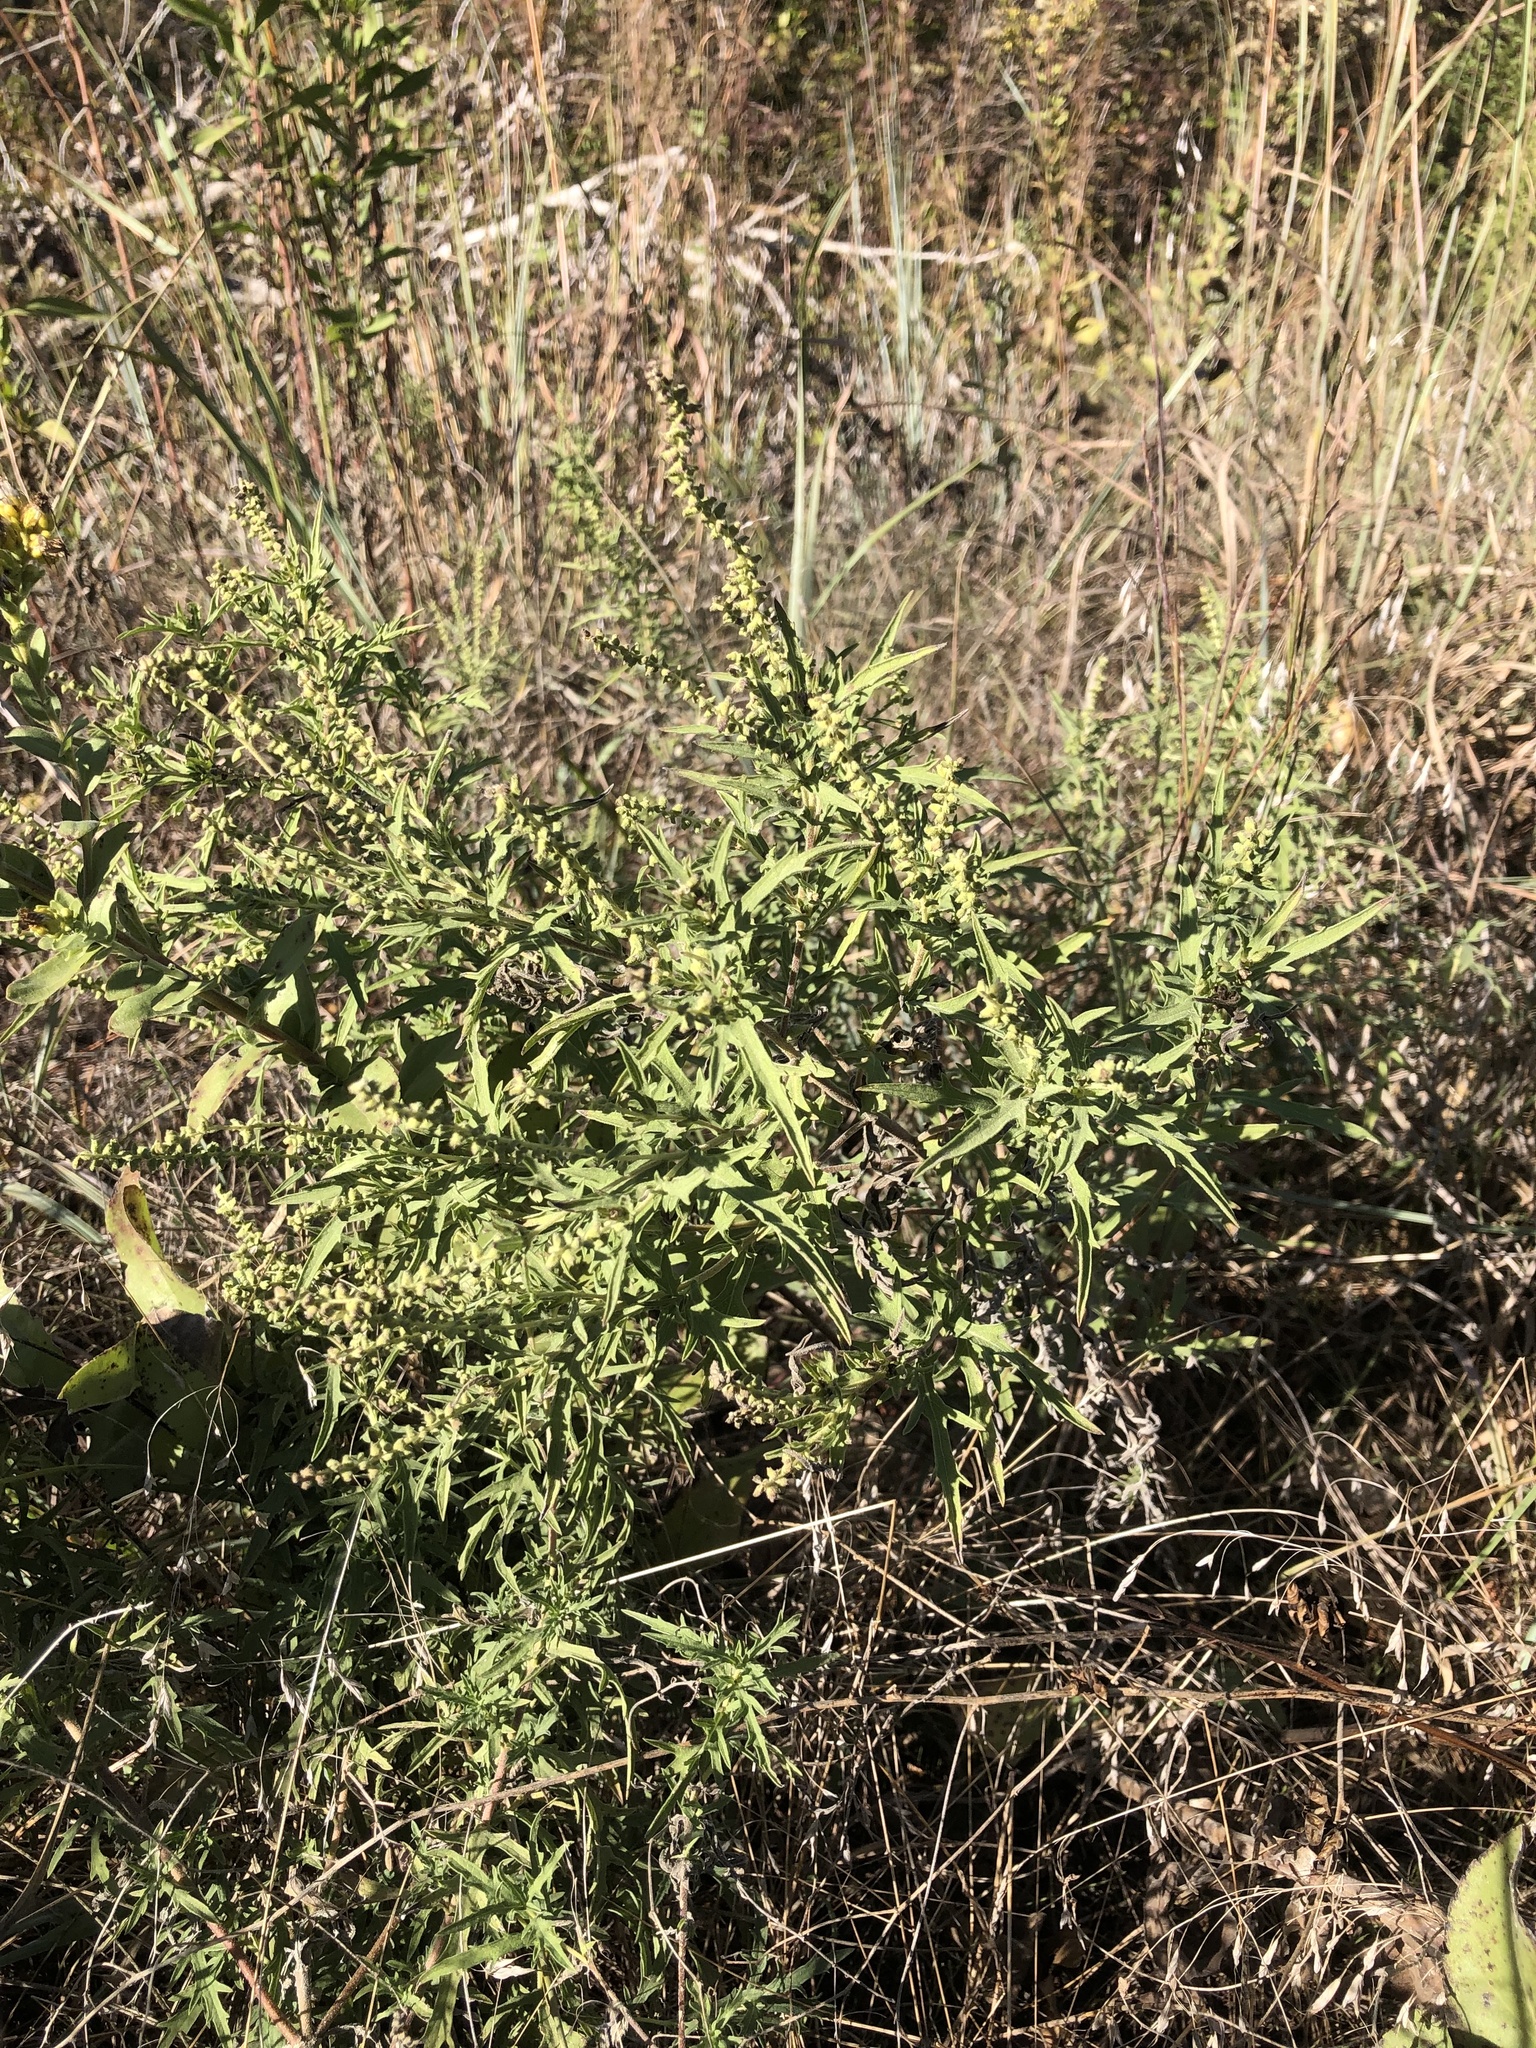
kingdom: Plantae
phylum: Tracheophyta
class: Magnoliopsida
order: Asterales
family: Asteraceae
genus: Ambrosia
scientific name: Ambrosia psilostachya
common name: Perennial ragweed
